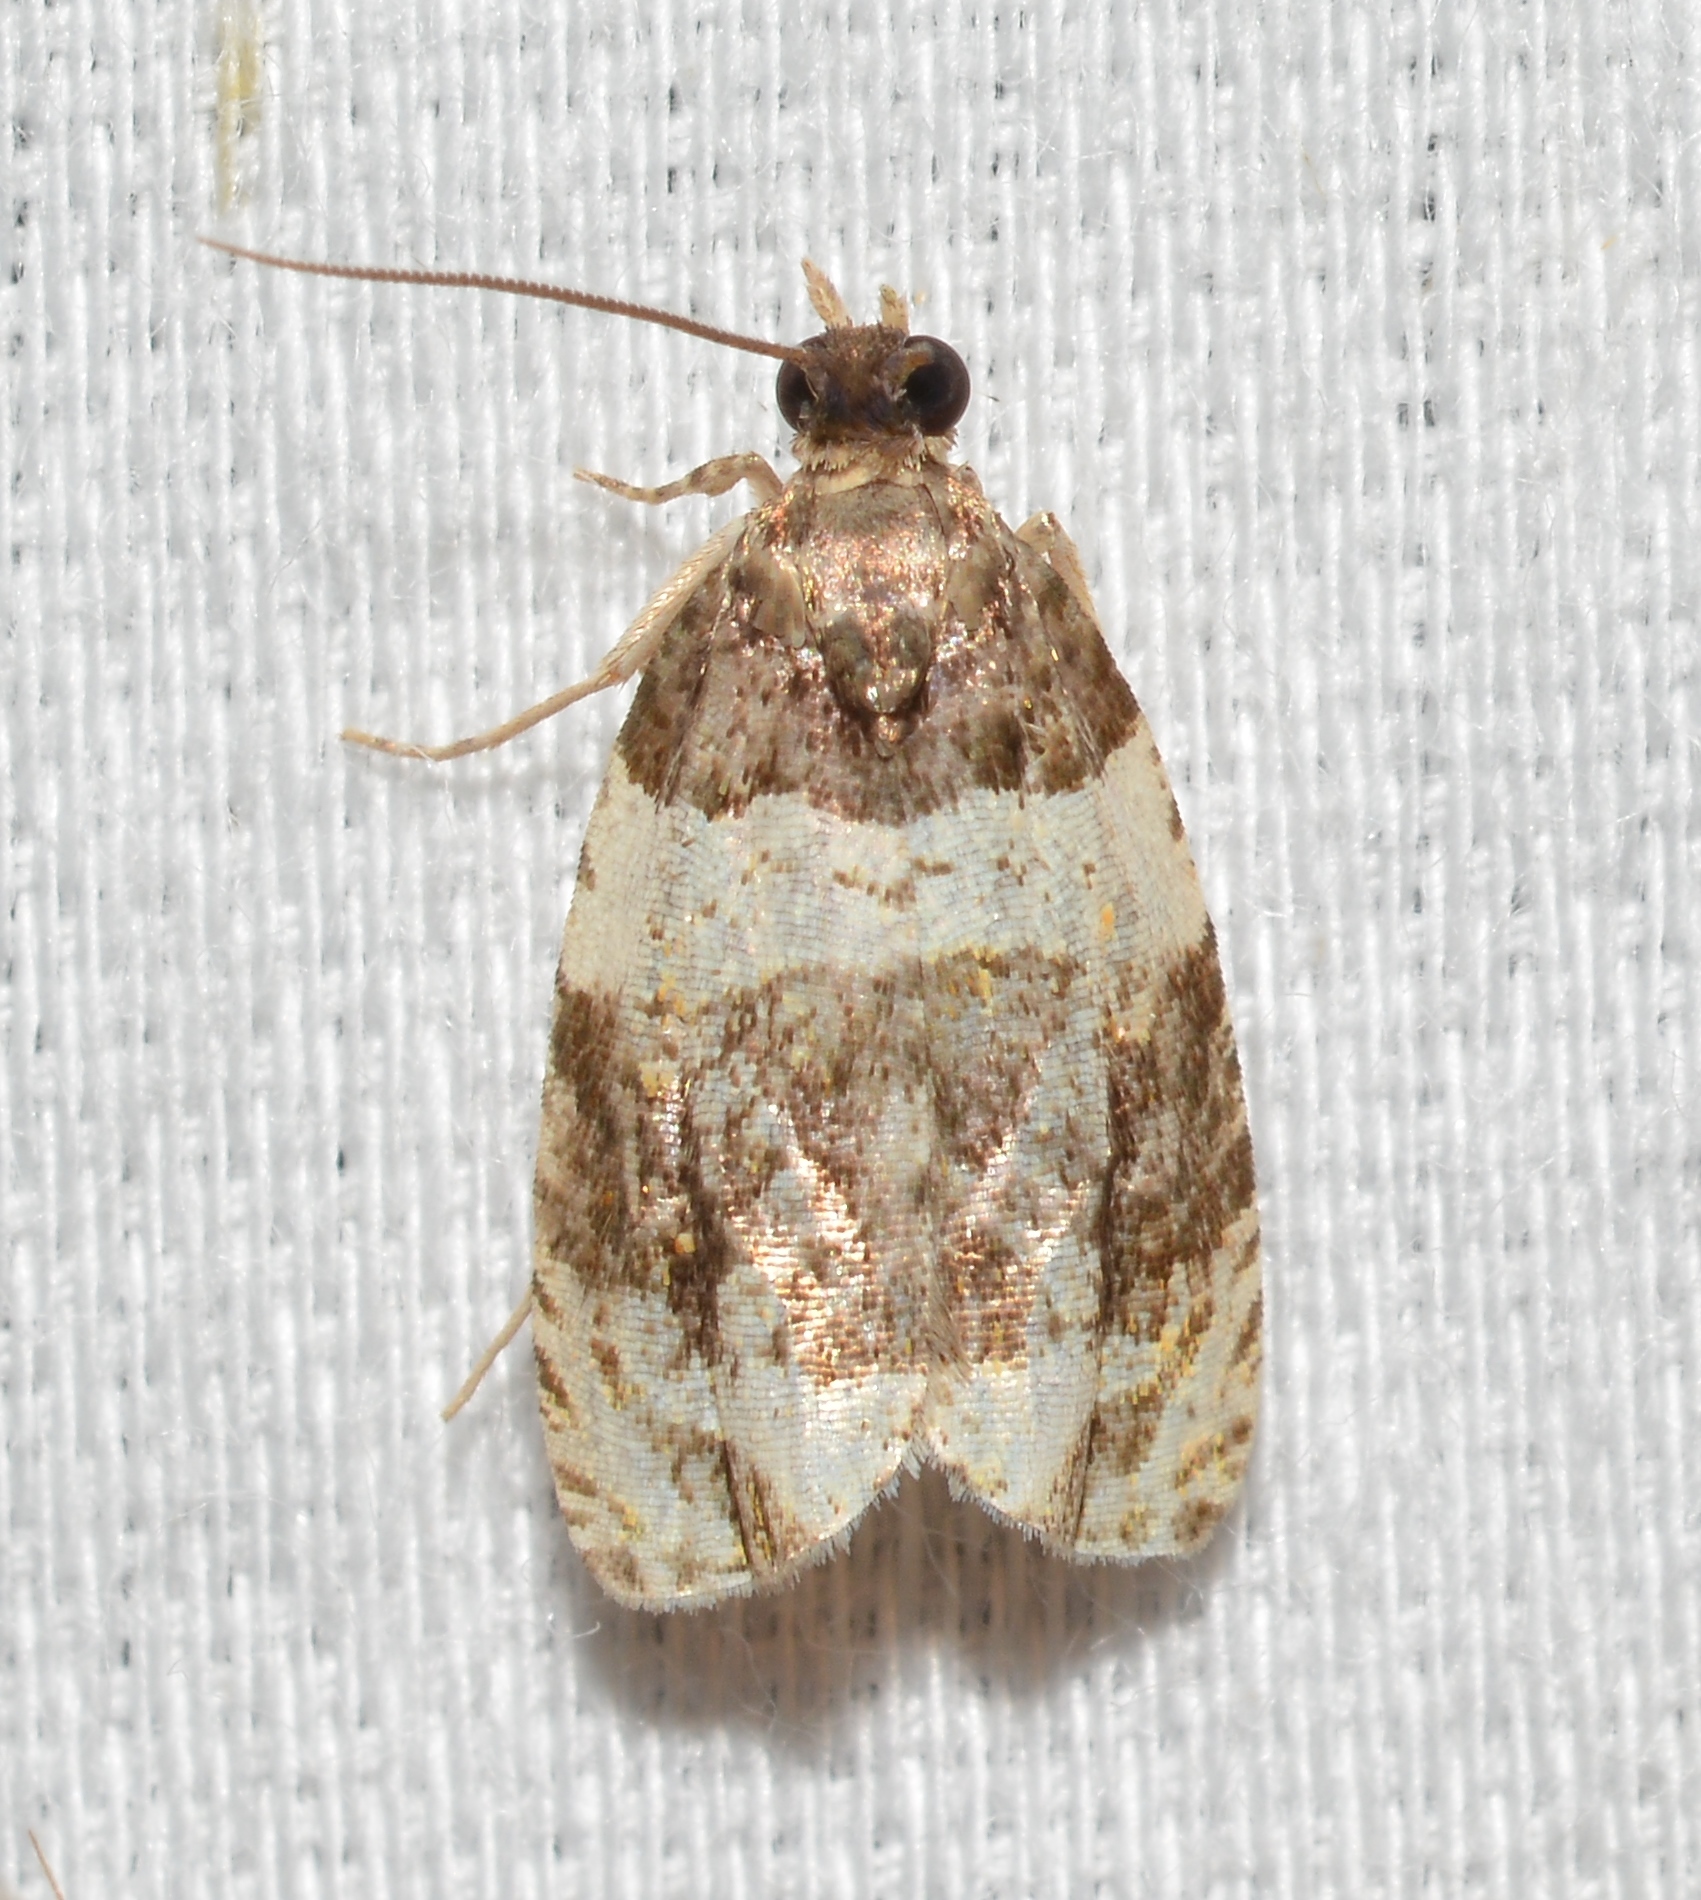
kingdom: Animalia
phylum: Arthropoda
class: Insecta
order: Lepidoptera
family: Tortricidae
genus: Olethreutes
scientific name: Olethreutes fasciatana
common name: Banded olethreutes moth
